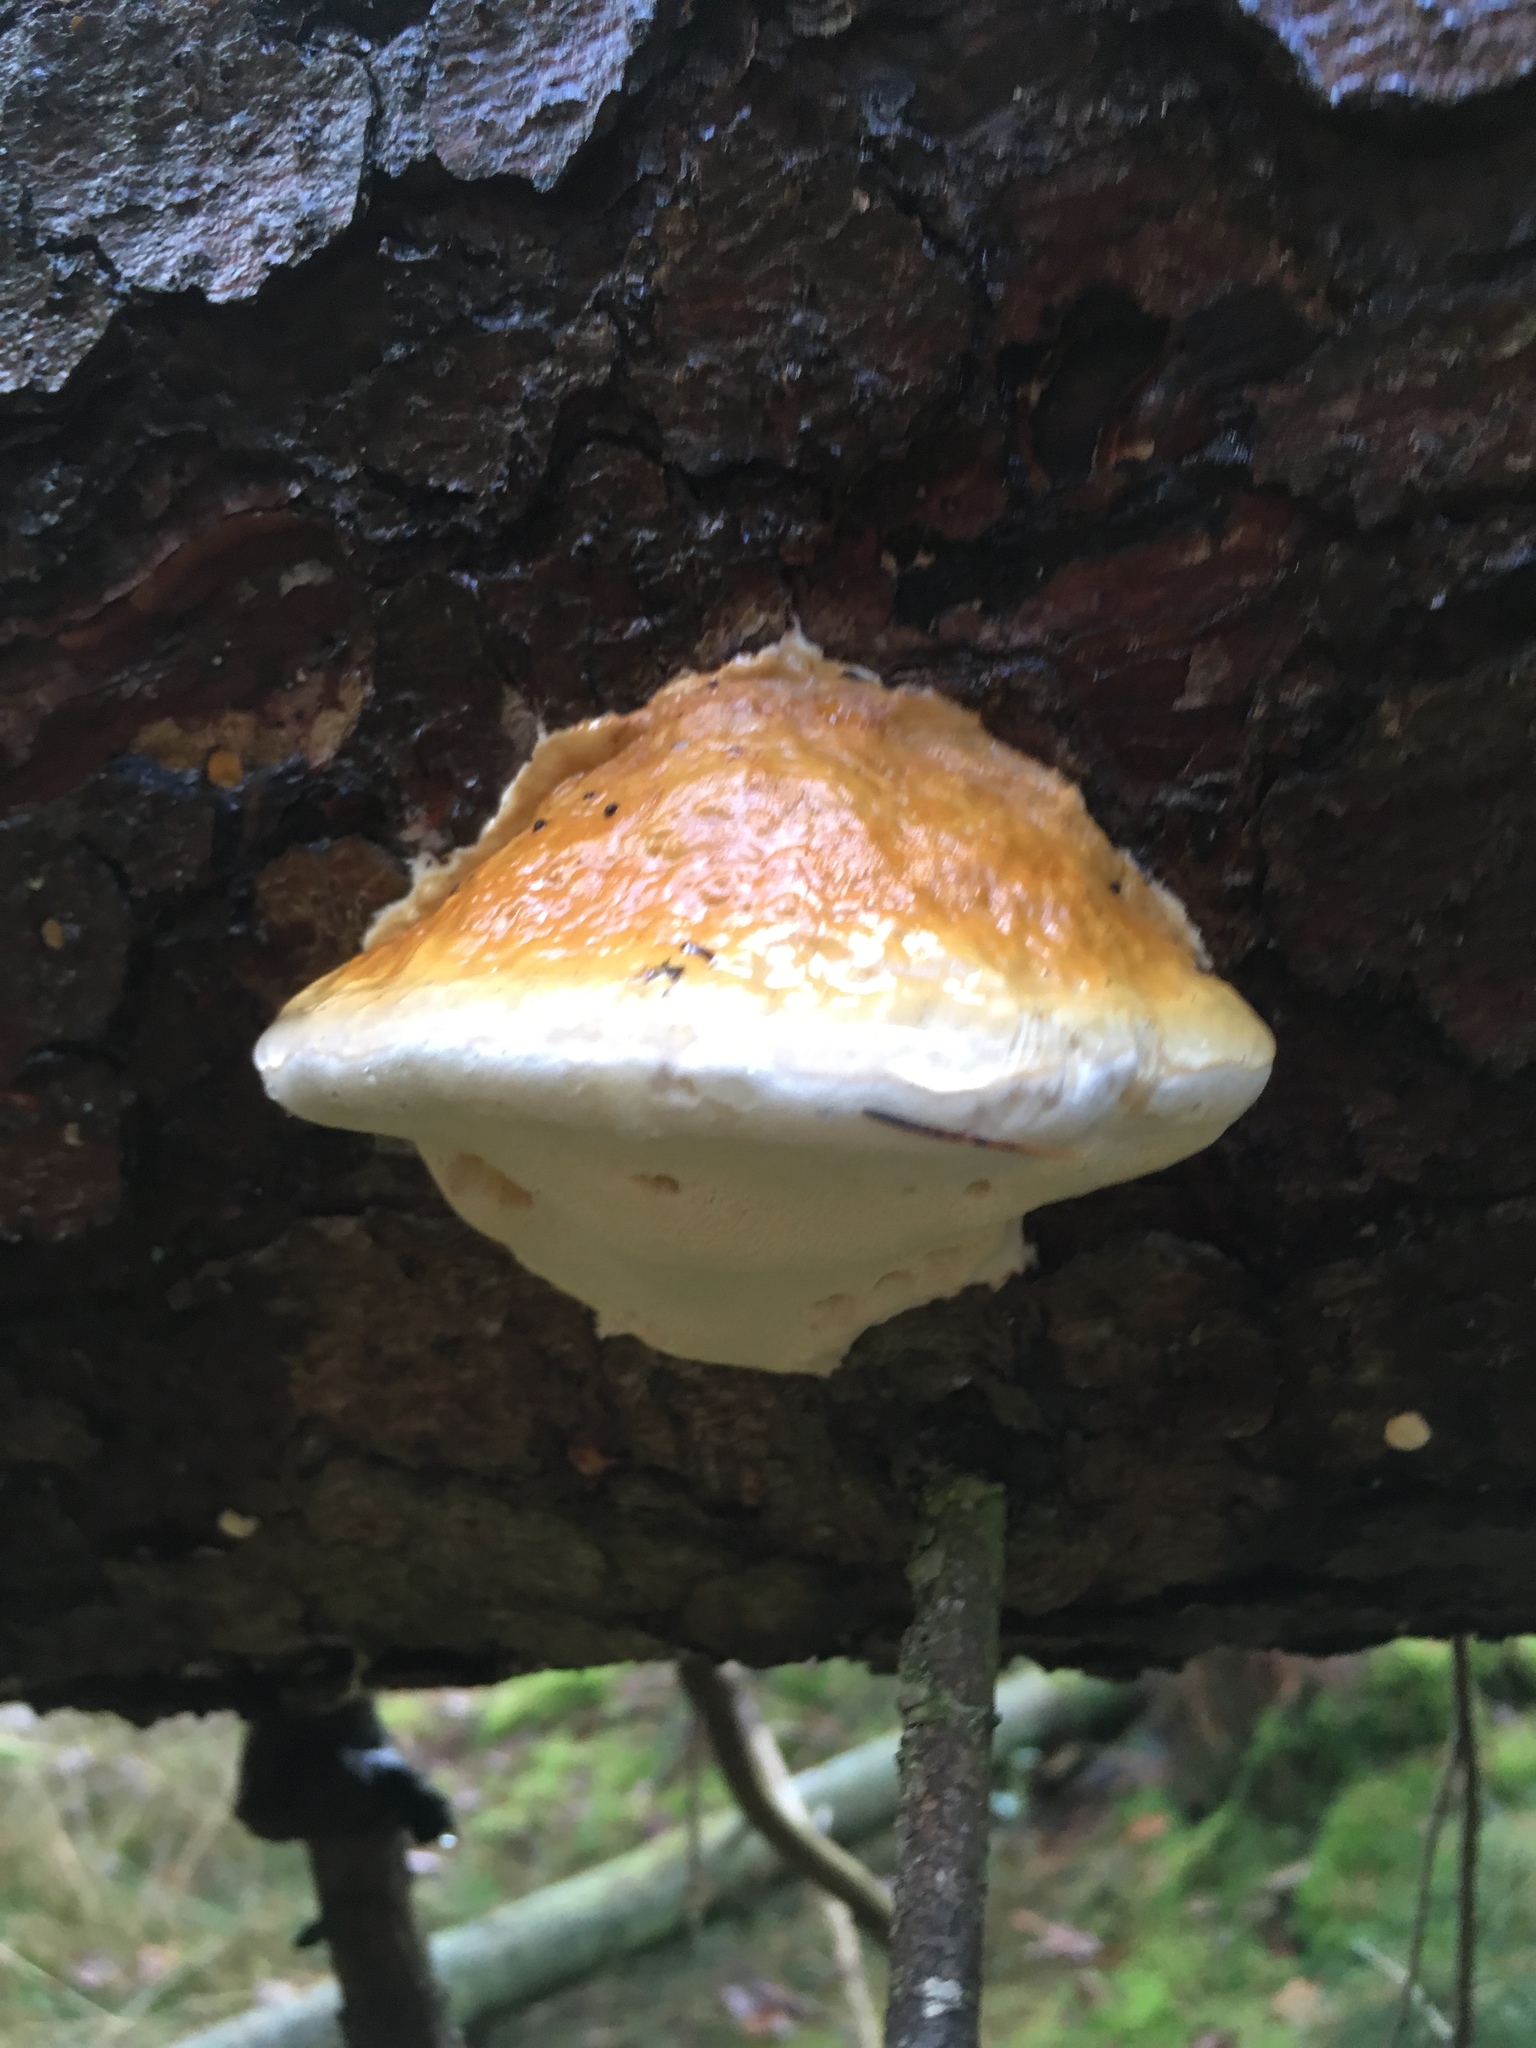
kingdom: Fungi
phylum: Basidiomycota
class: Agaricomycetes
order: Polyporales
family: Fomitopsidaceae
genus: Fomitopsis
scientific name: Fomitopsis pinicola
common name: Red-belted bracket
